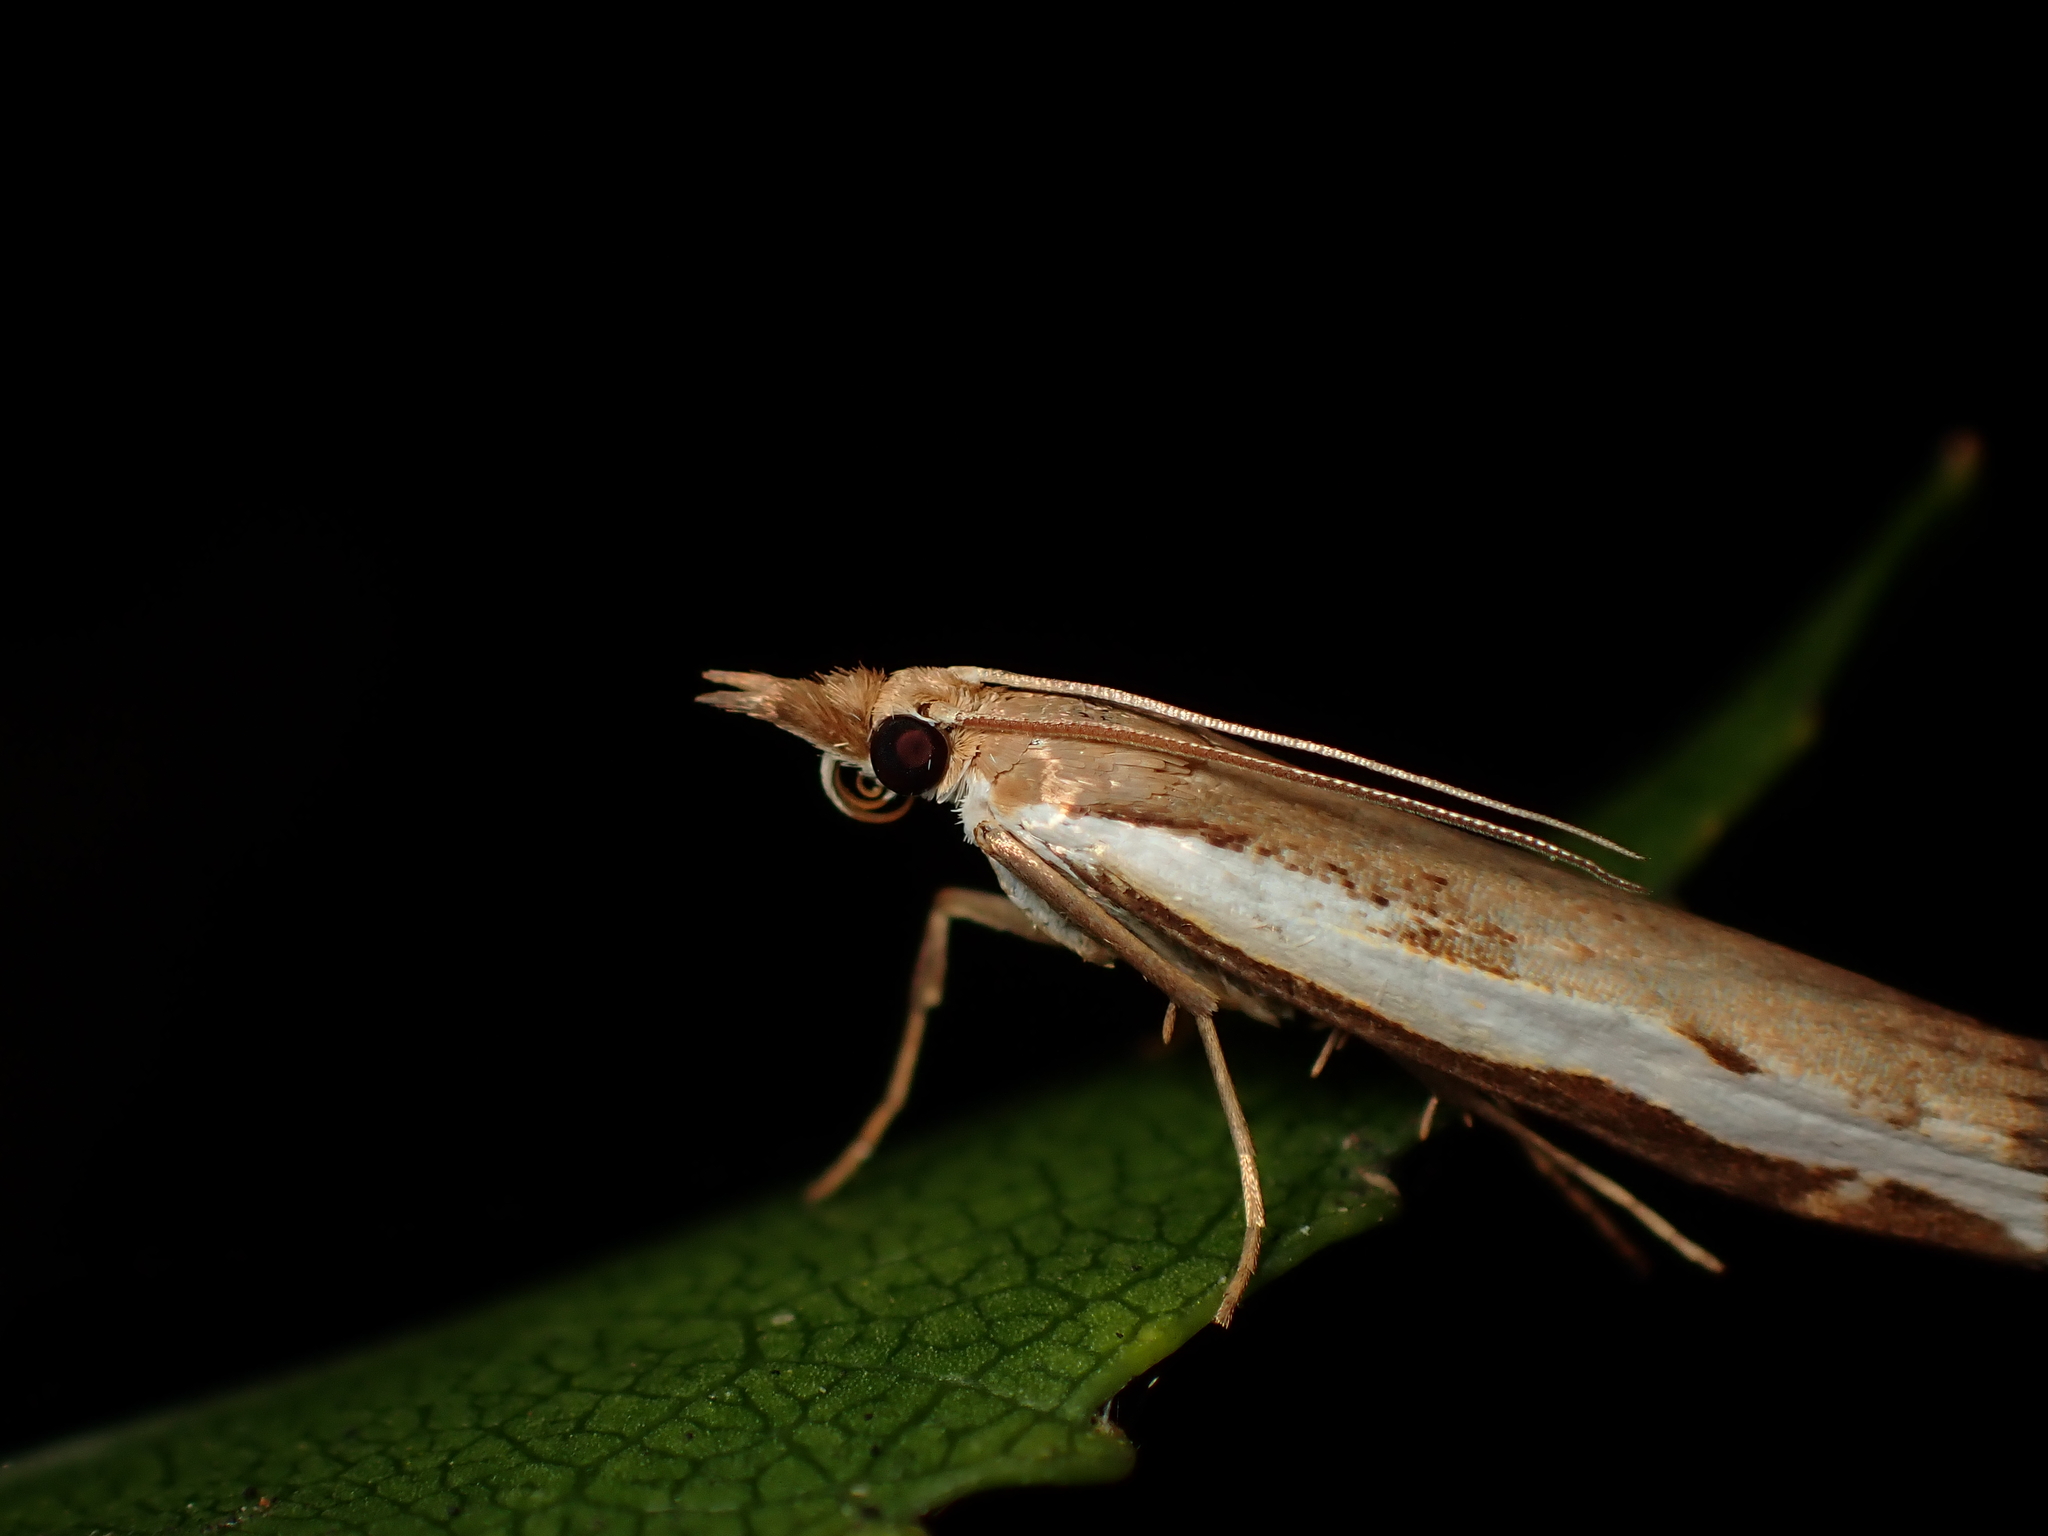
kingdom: Animalia
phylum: Arthropoda
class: Insecta
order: Lepidoptera
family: Crambidae
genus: Orocrambus
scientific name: Orocrambus flexuosellus
